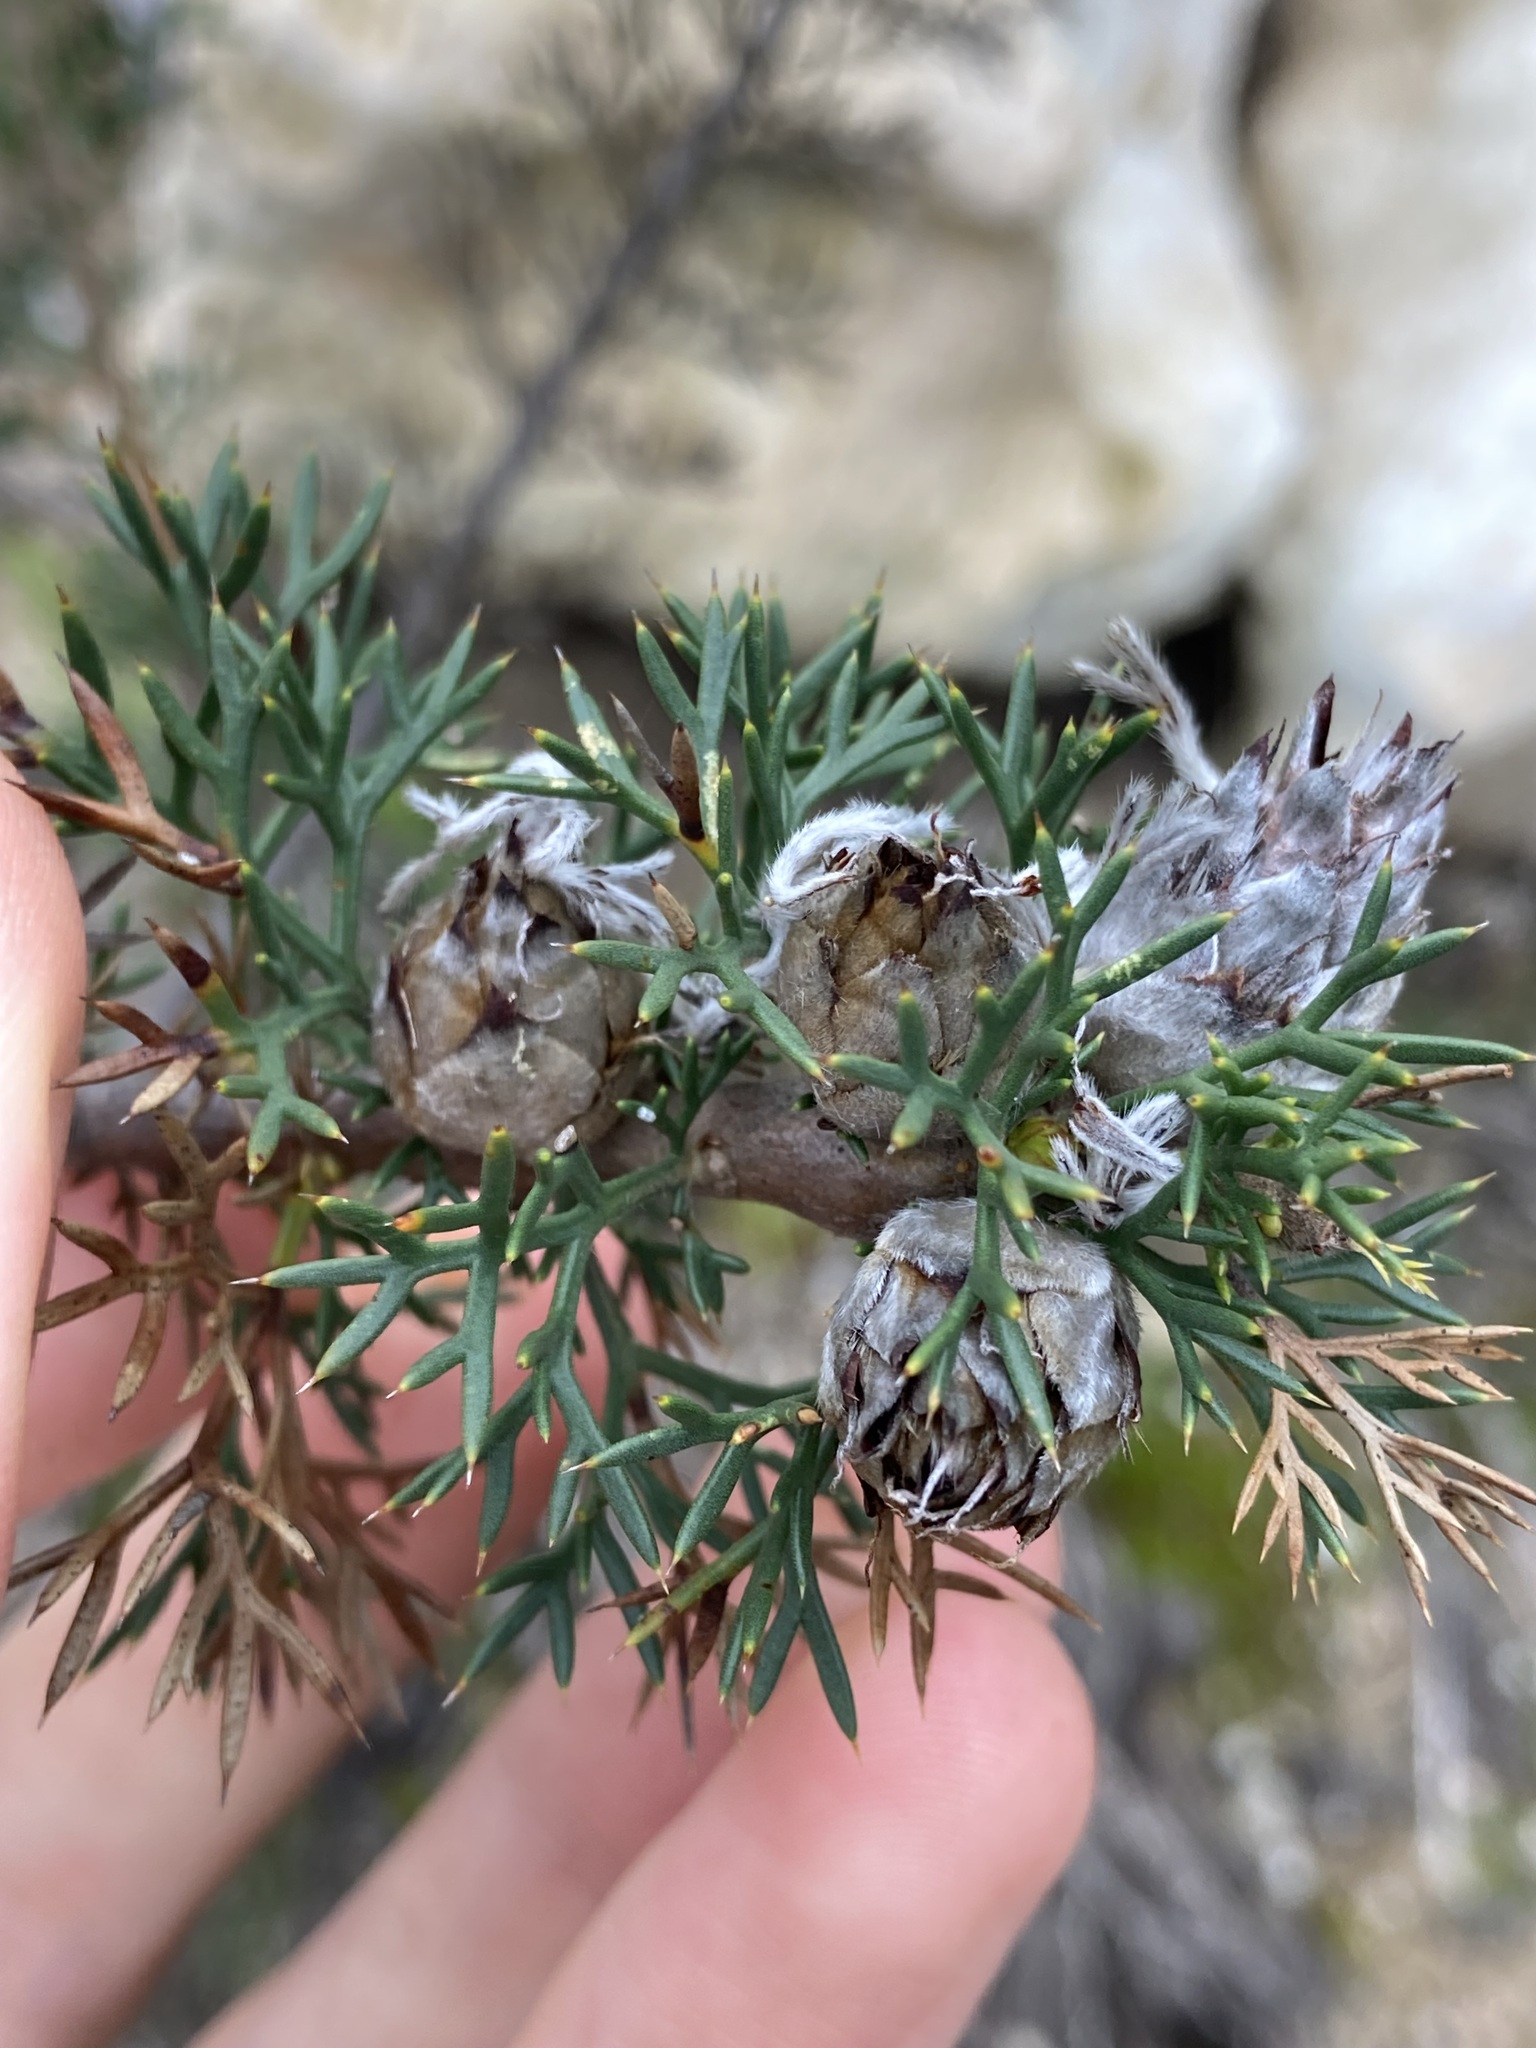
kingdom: Plantae
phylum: Tracheophyta
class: Magnoliopsida
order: Proteales
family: Proteaceae
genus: Petrophile
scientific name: Petrophile serruriae
